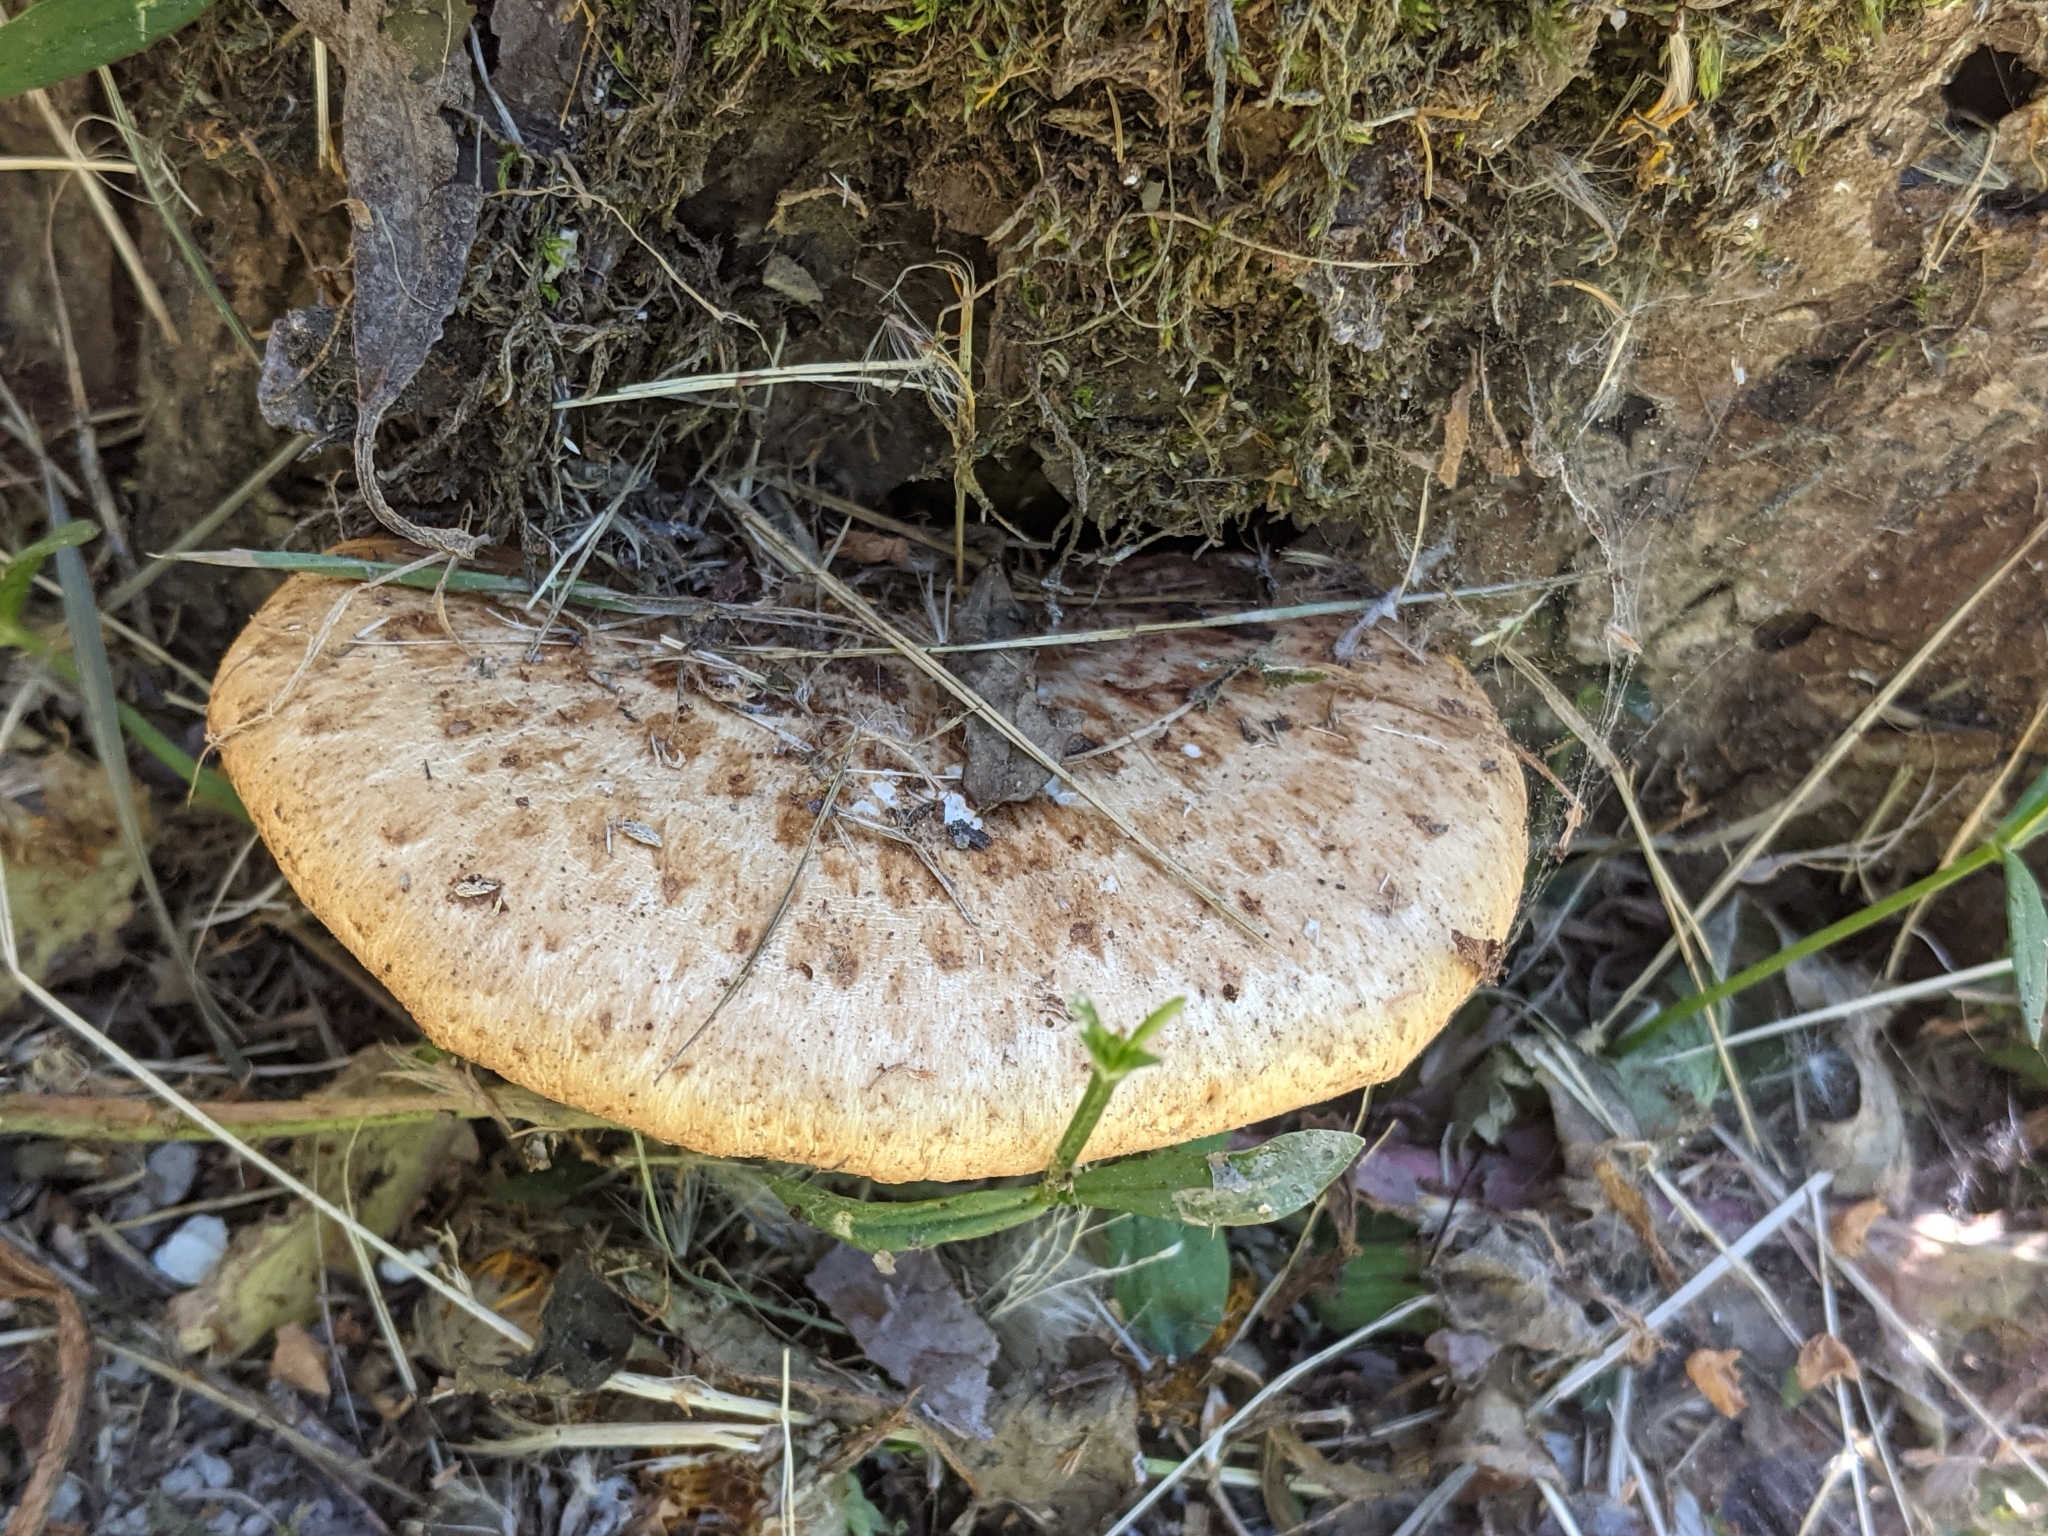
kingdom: Fungi
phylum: Basidiomycota
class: Agaricomycetes
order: Polyporales
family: Polyporaceae
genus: Cerioporus
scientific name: Cerioporus squamosus
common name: Dryad's saddle
